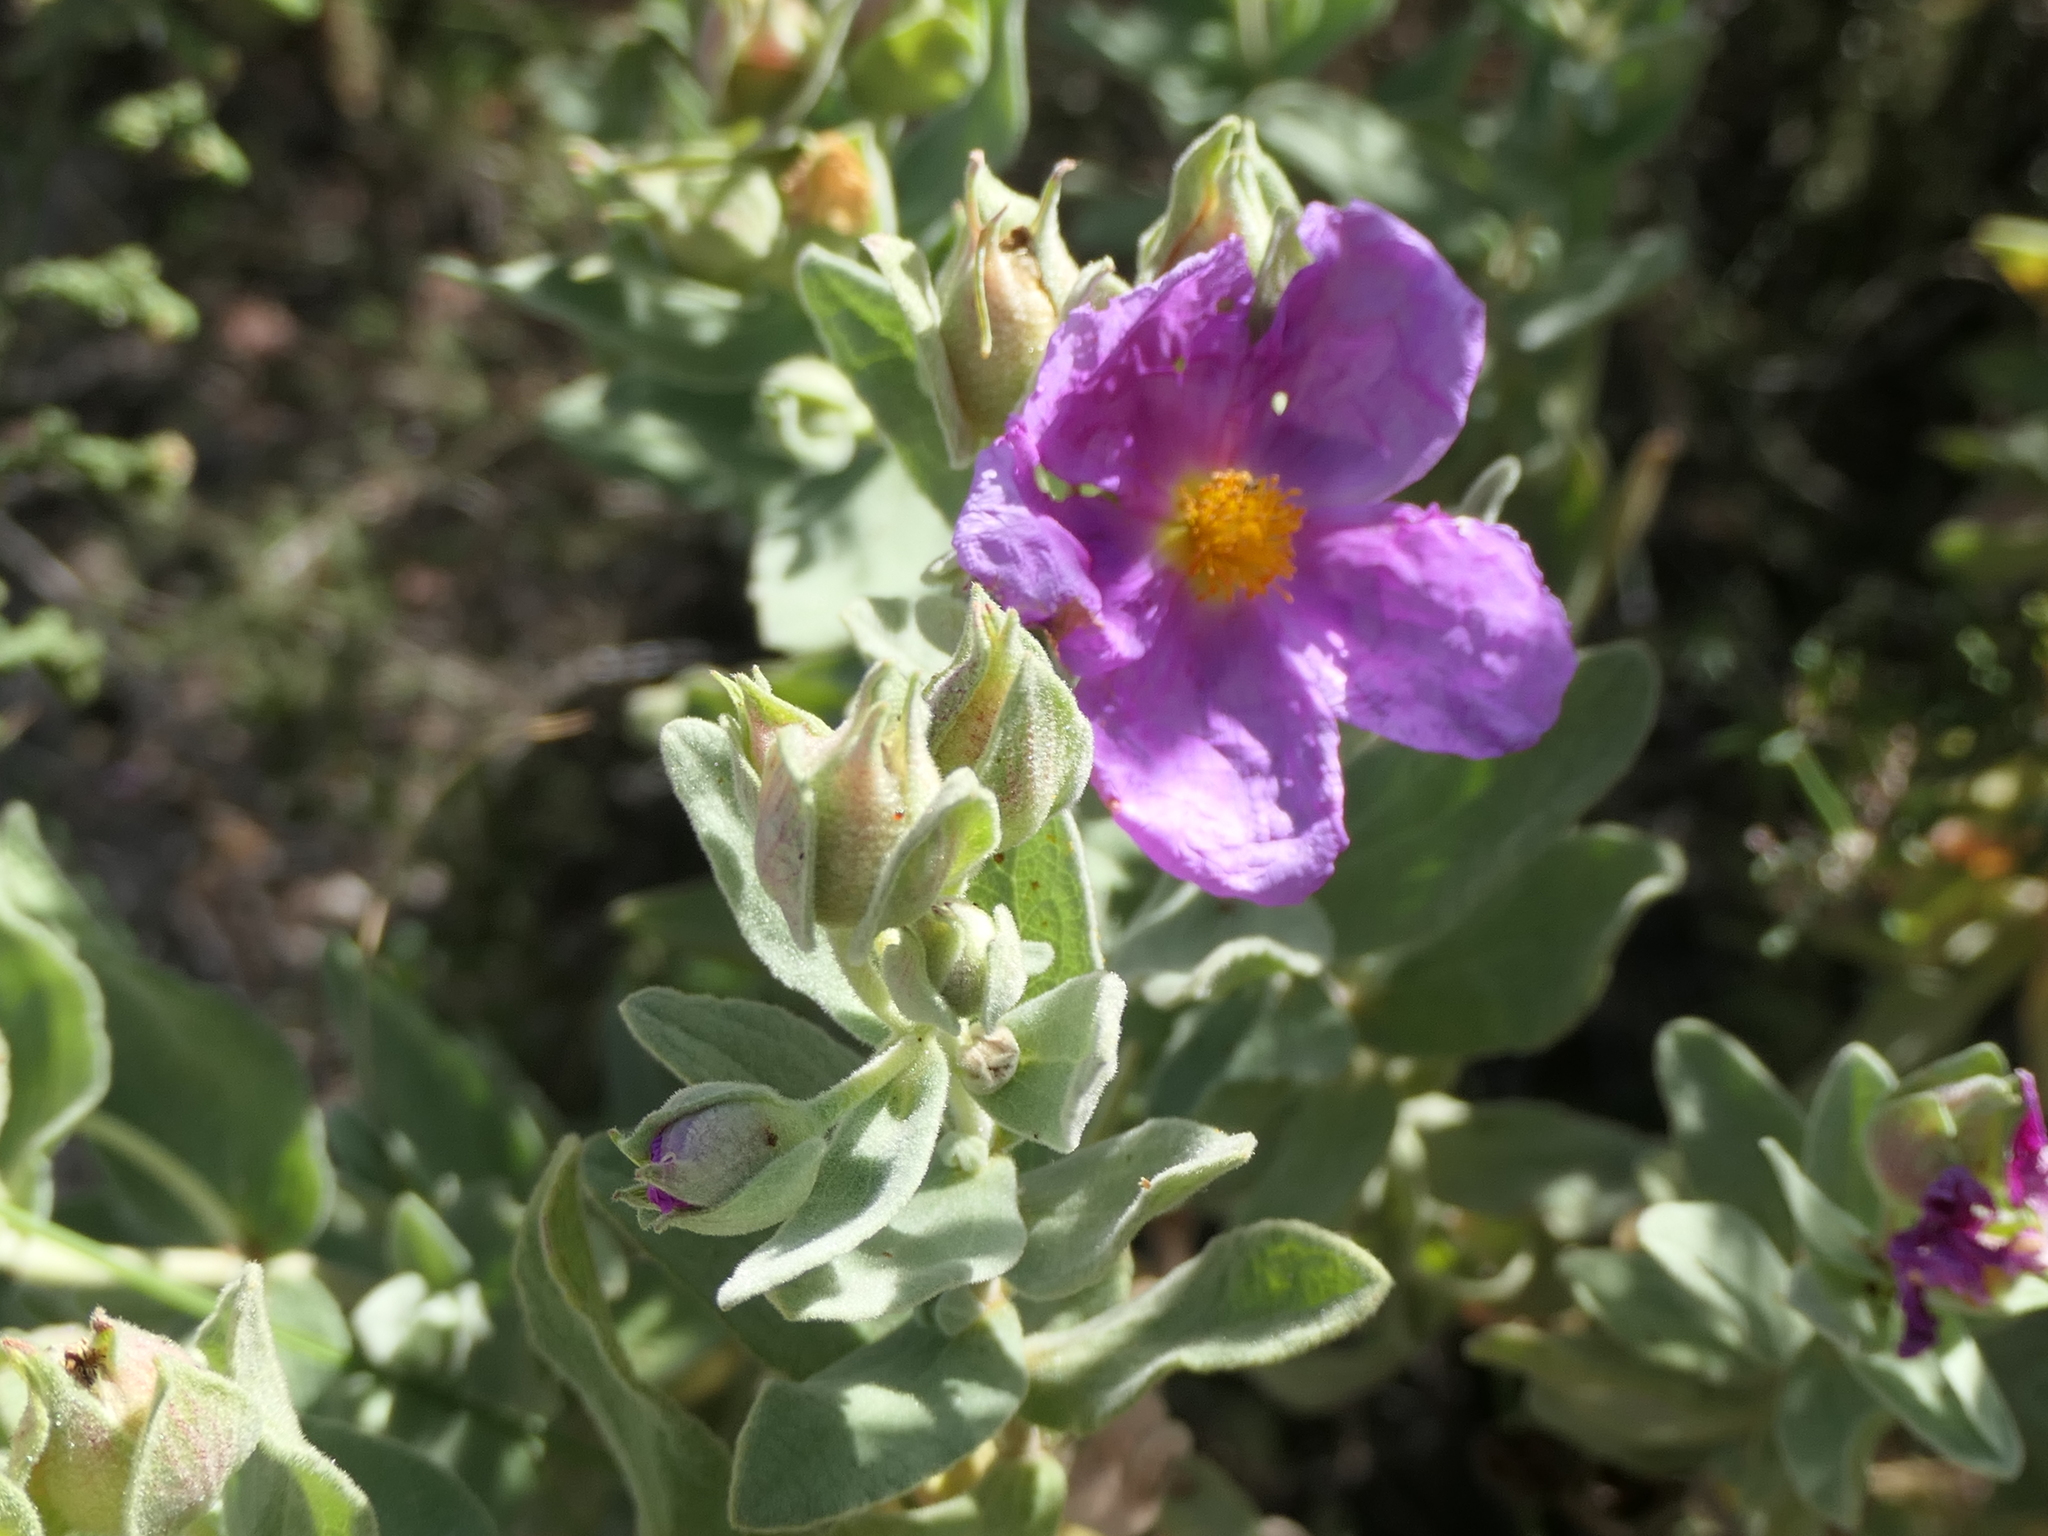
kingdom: Plantae
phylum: Tracheophyta
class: Magnoliopsida
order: Malvales
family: Cistaceae
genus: Cistus
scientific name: Cistus albidus
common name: White-leaf rock-rose
